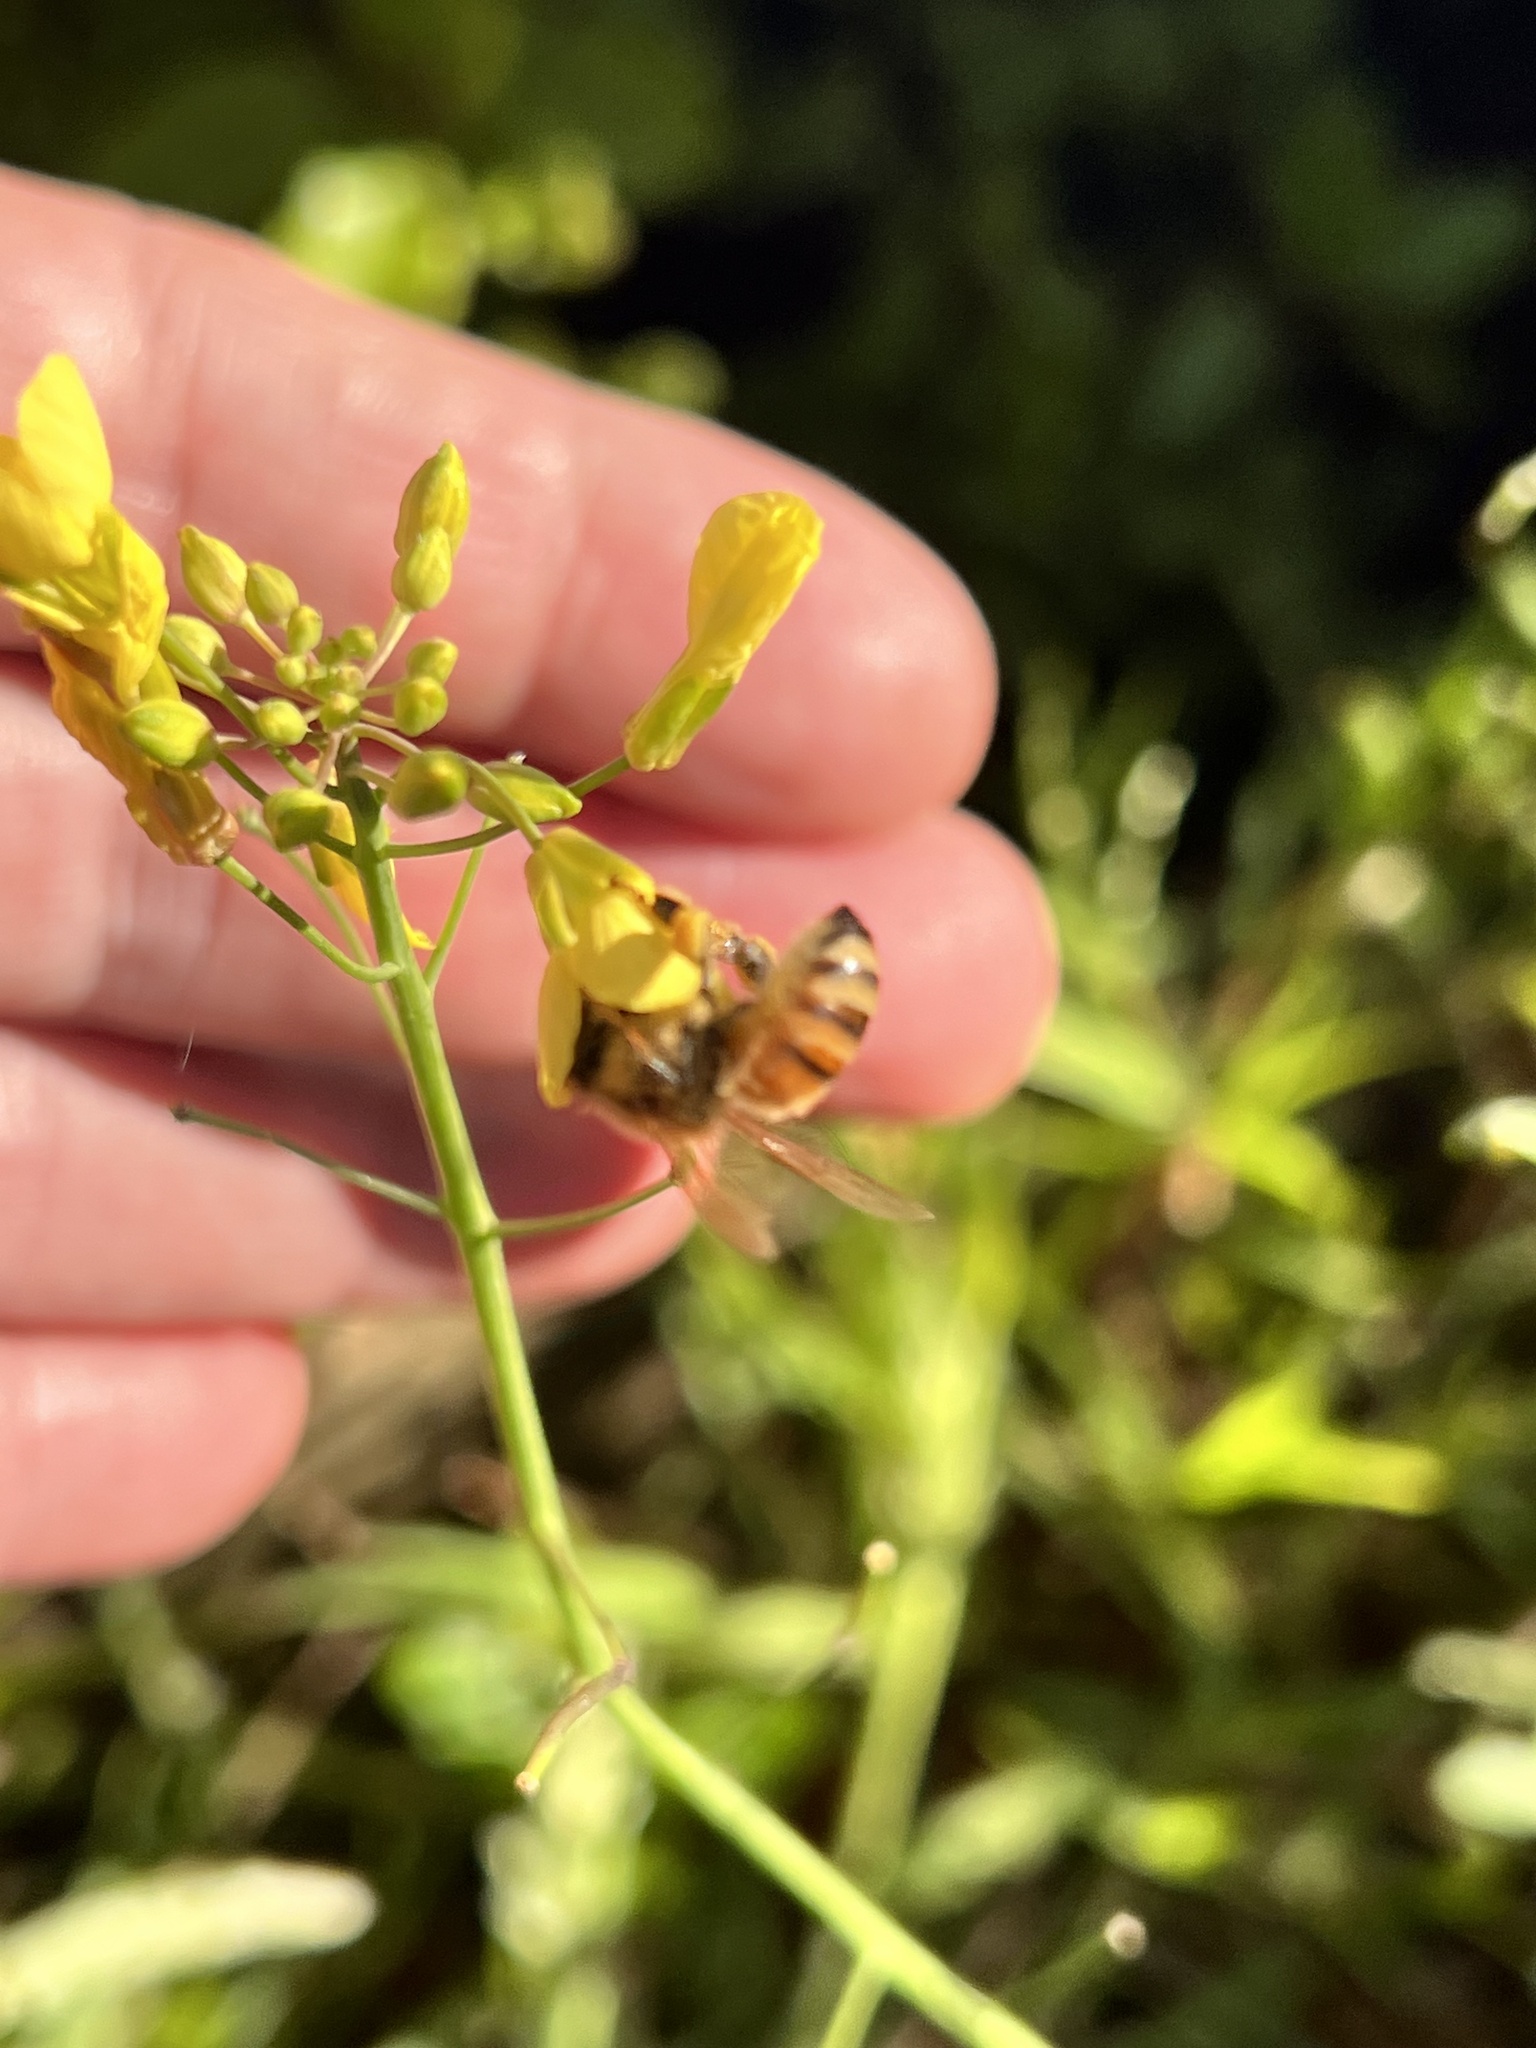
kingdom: Animalia
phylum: Arthropoda
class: Insecta
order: Hymenoptera
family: Apidae
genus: Apis
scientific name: Apis mellifera
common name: Honey bee
